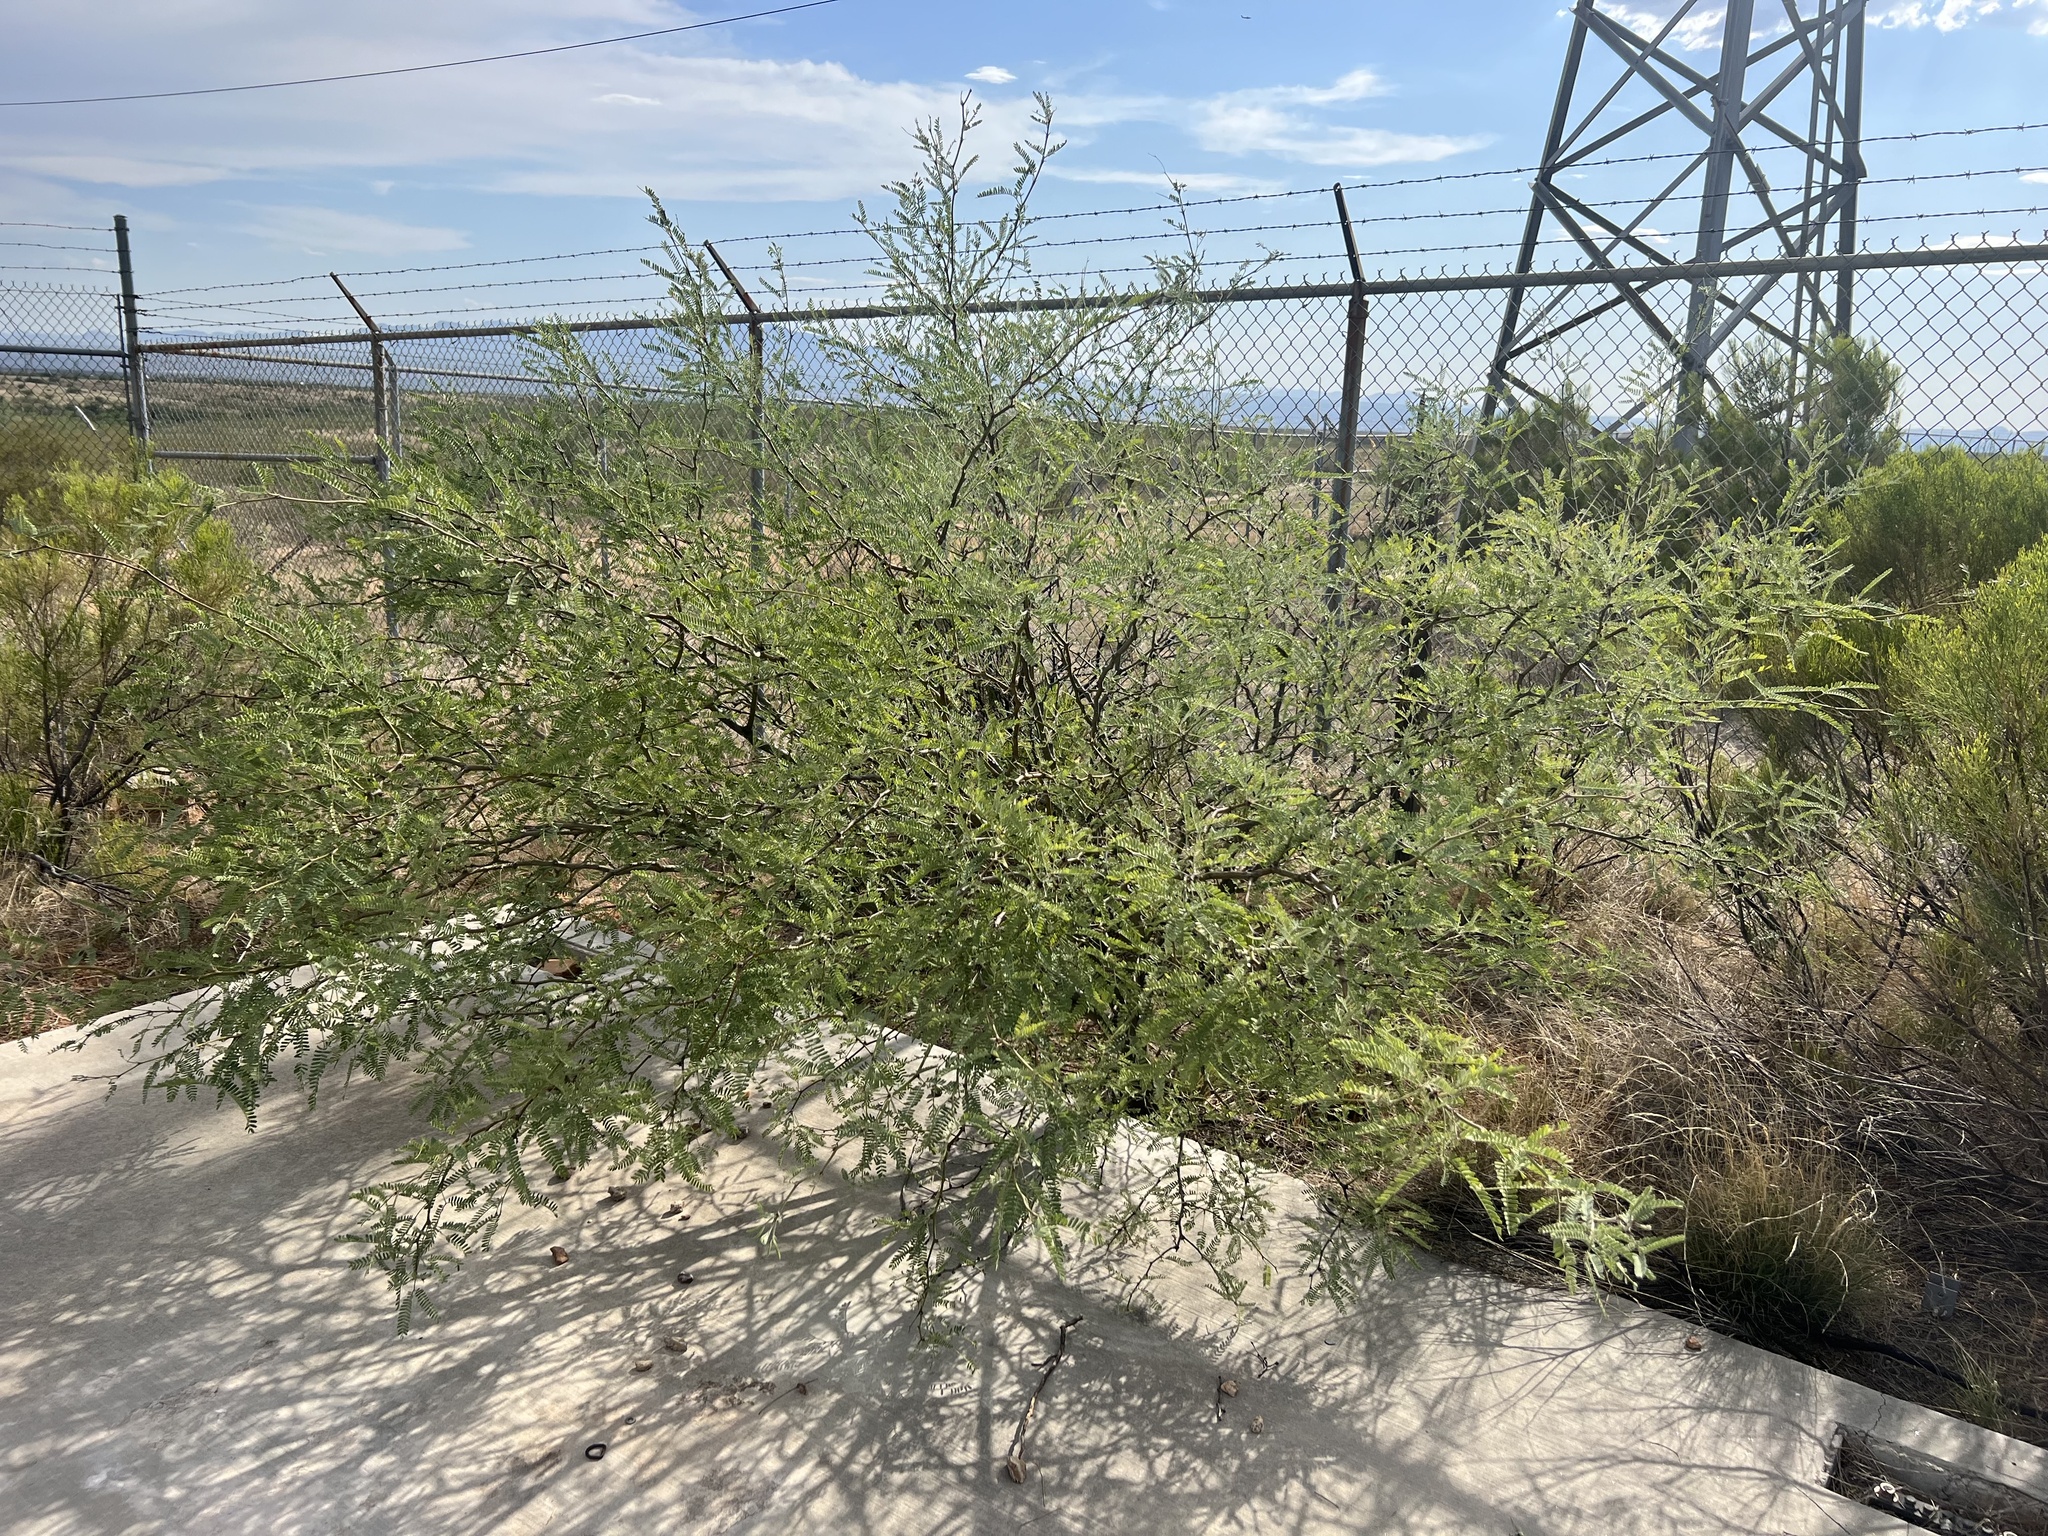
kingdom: Plantae
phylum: Tracheophyta
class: Magnoliopsida
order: Fabales
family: Fabaceae
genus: Prosopis
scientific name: Prosopis velutina
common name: Velvet mesquite
